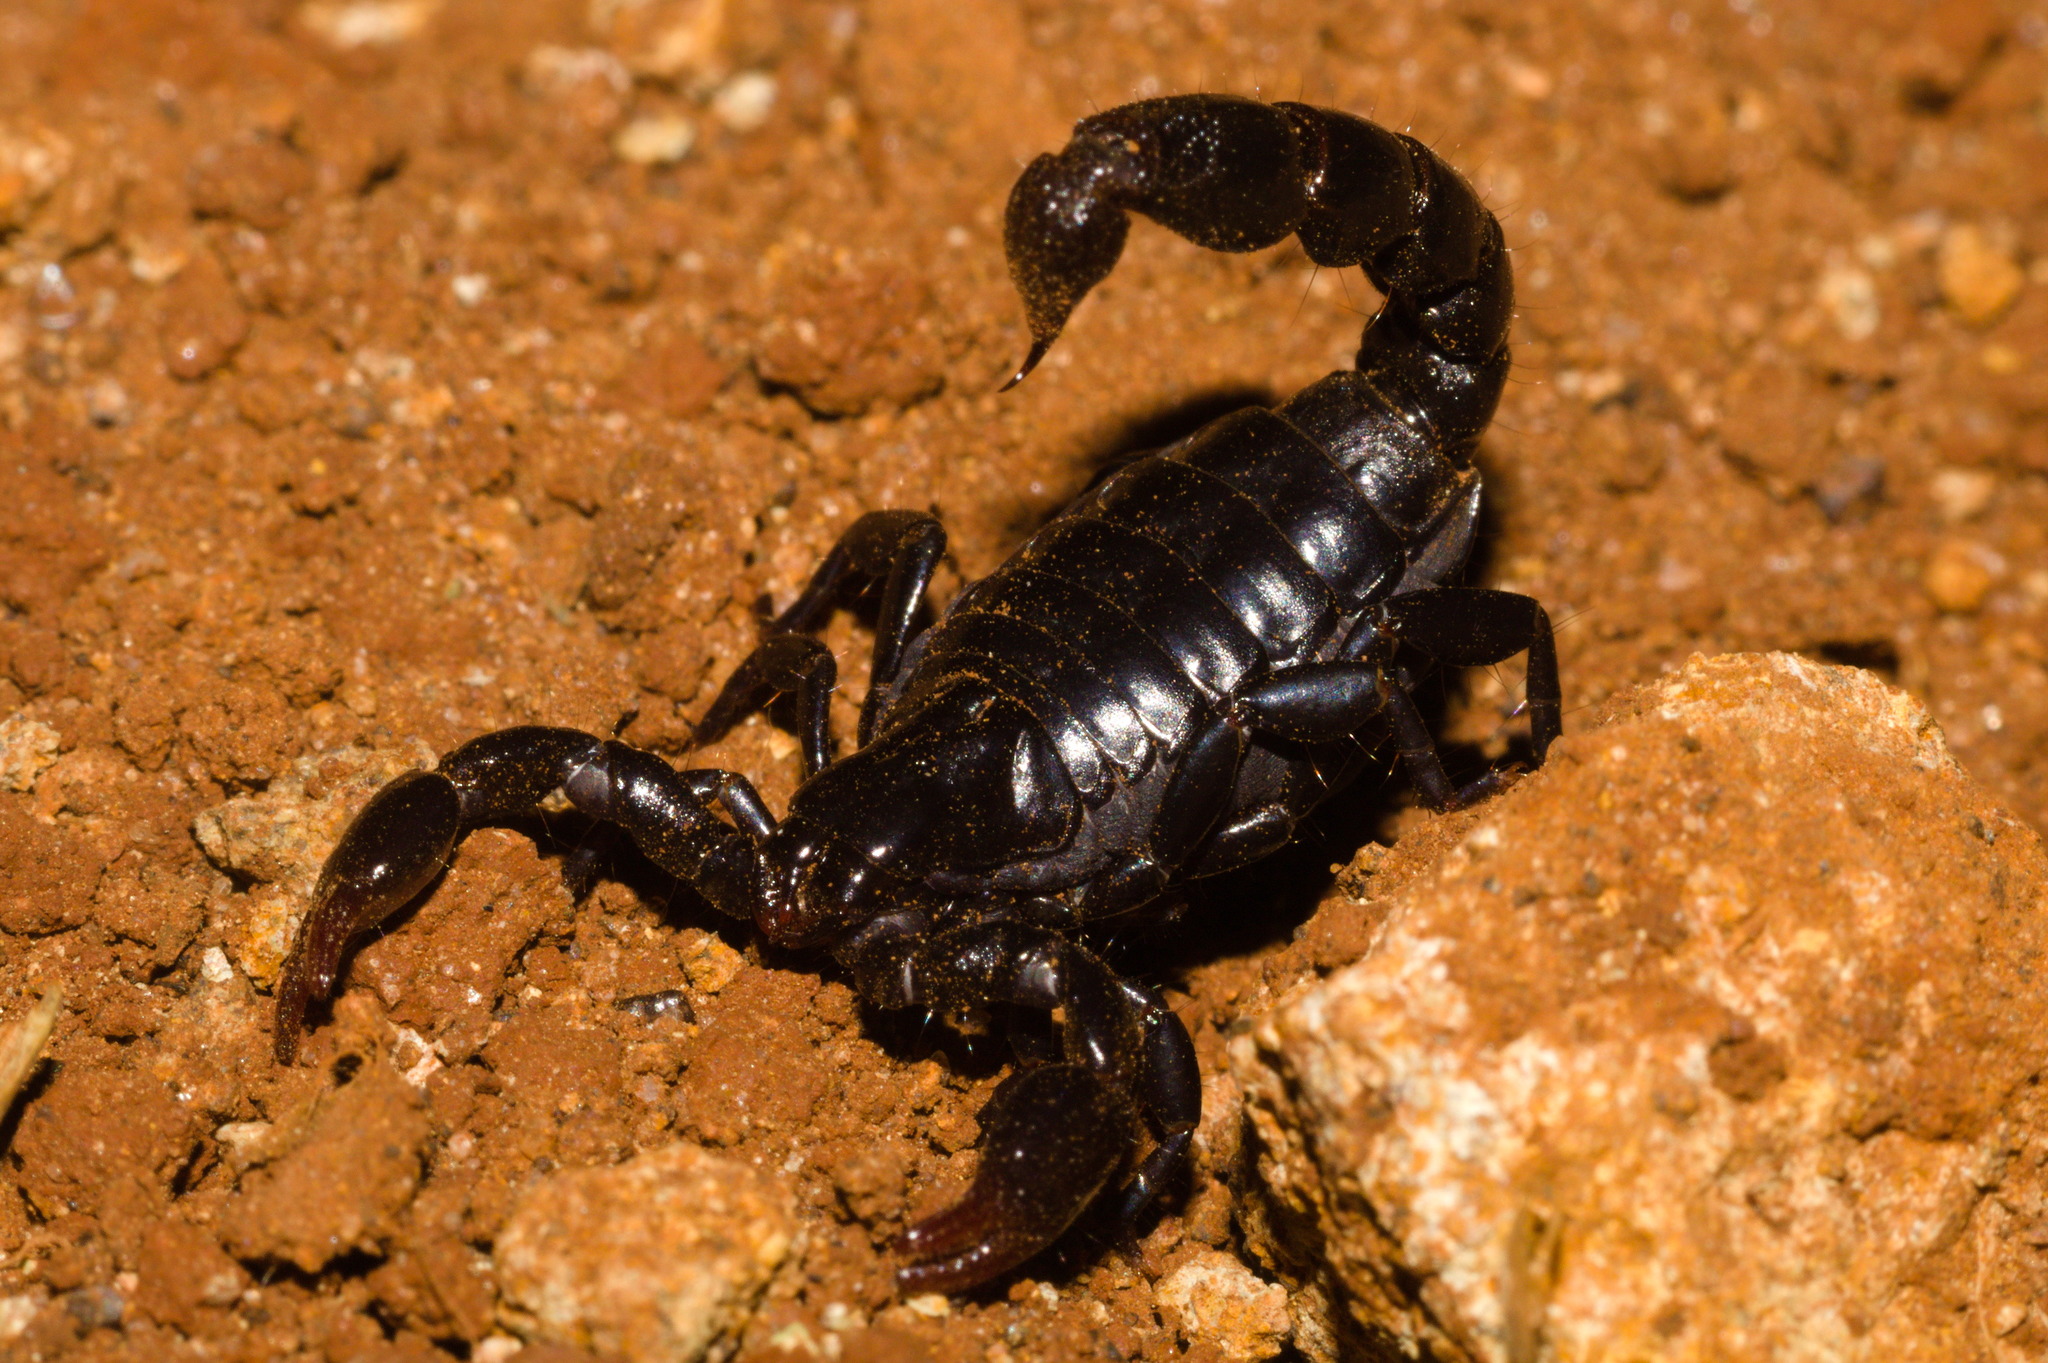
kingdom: Animalia
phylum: Arthropoda
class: Arachnida
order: Scorpiones
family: Bothriuridae
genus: Bothriurus
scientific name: Bothriurus bonariensis
